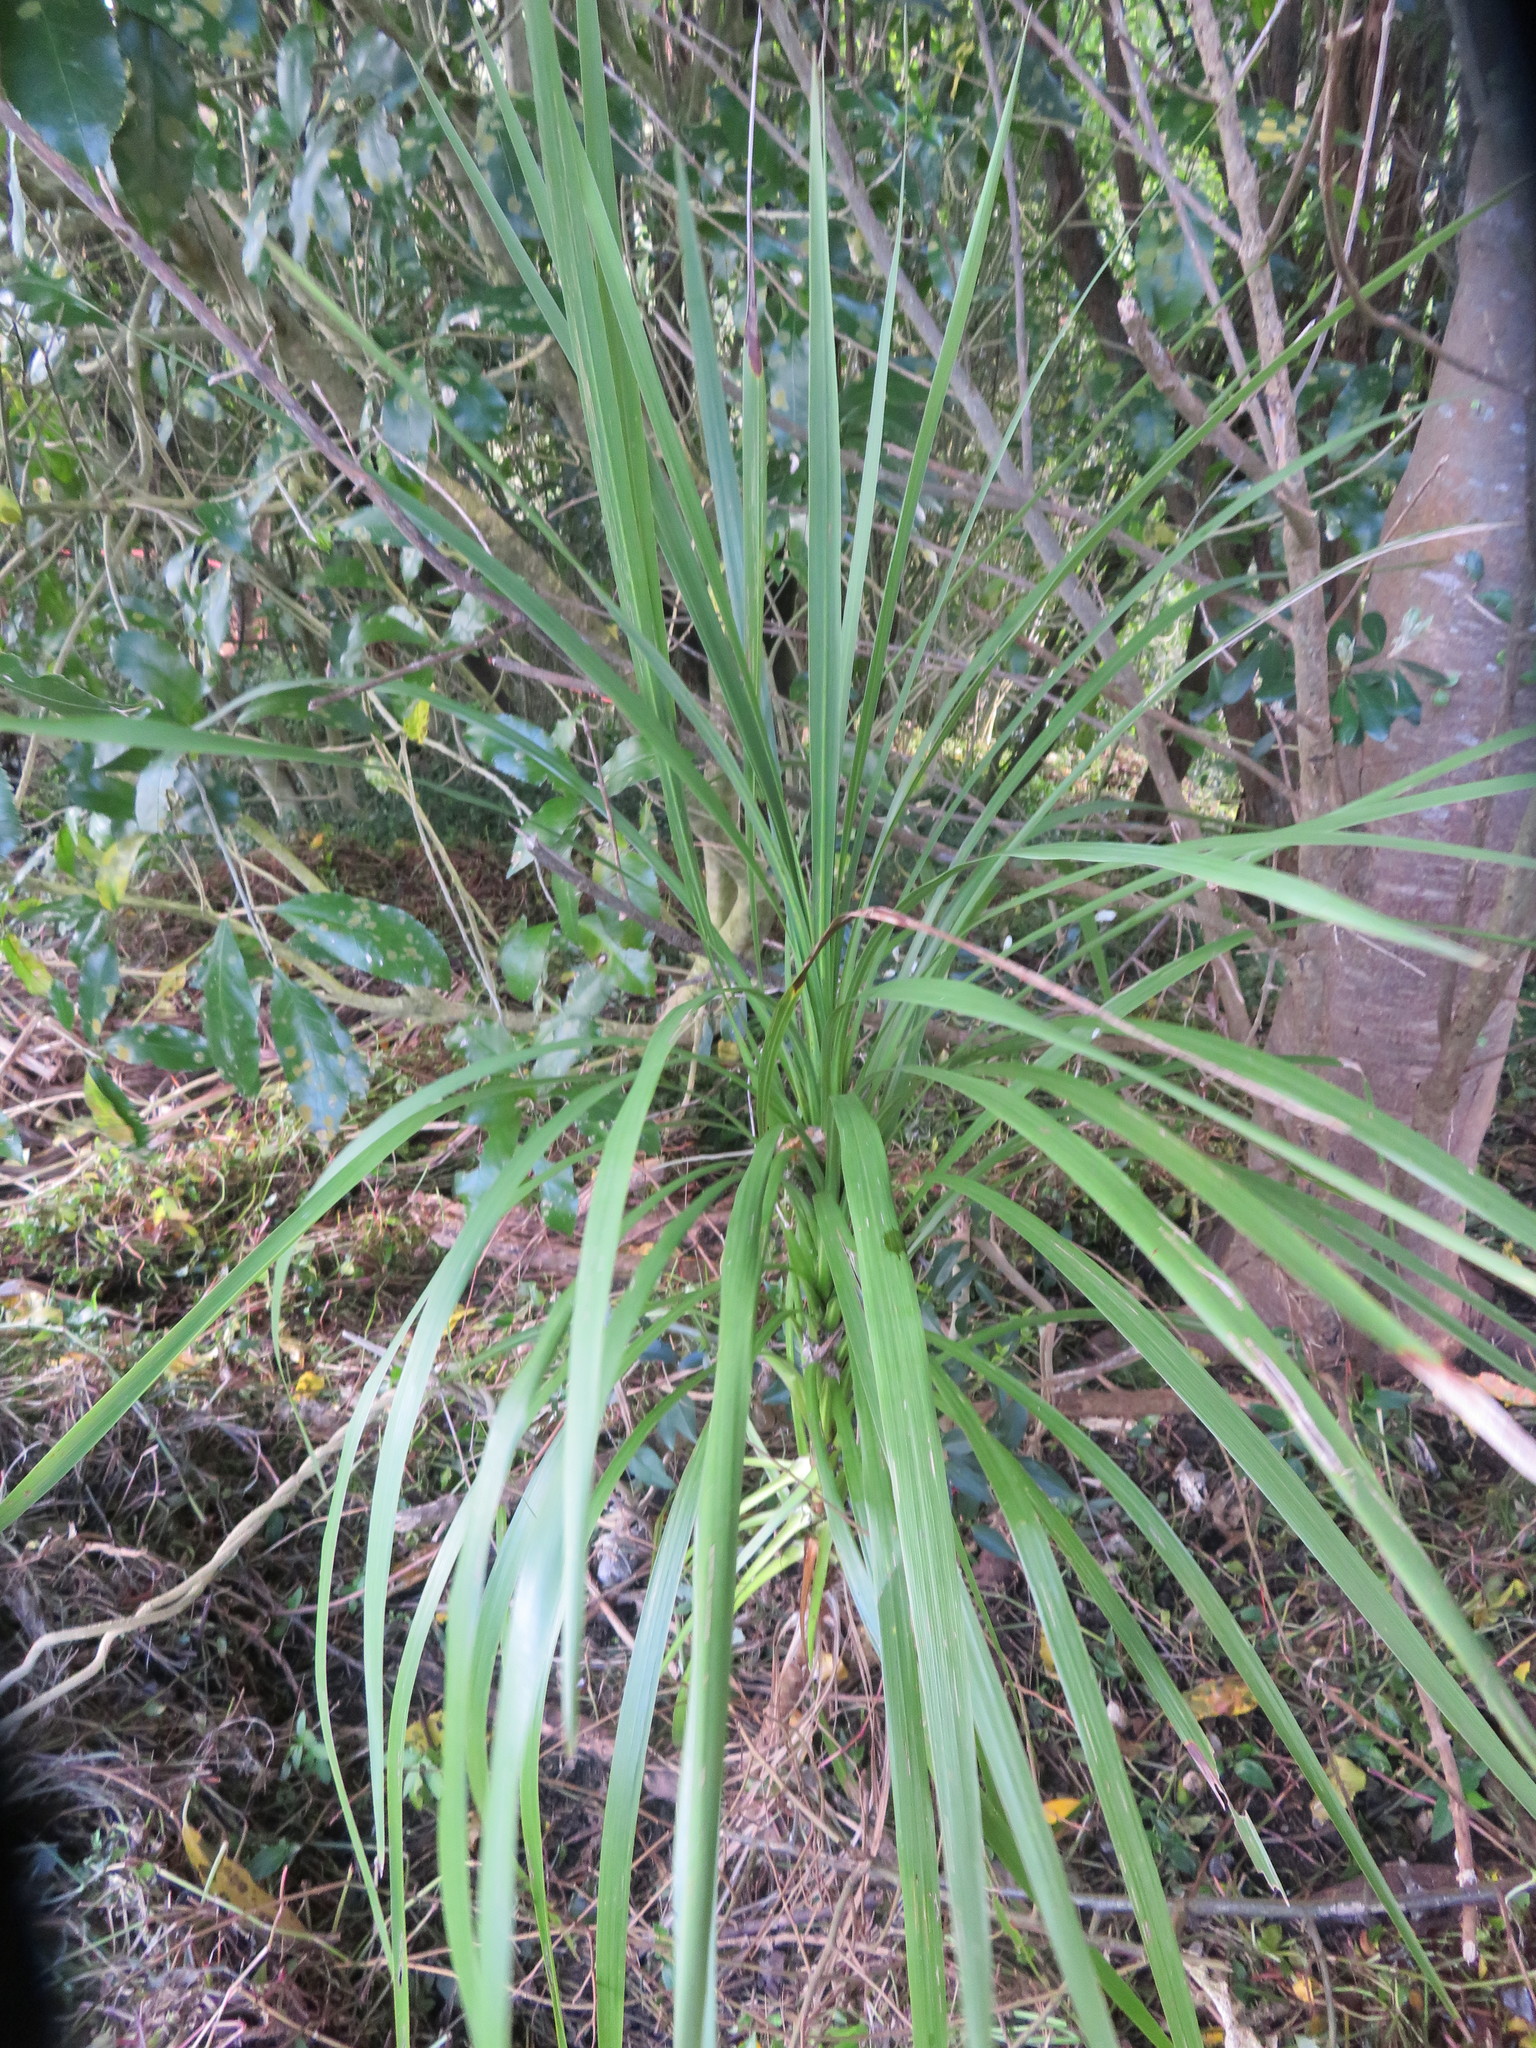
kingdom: Plantae
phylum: Tracheophyta
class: Liliopsida
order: Asparagales
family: Asparagaceae
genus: Cordyline
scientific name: Cordyline australis
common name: Cabbage-palm
